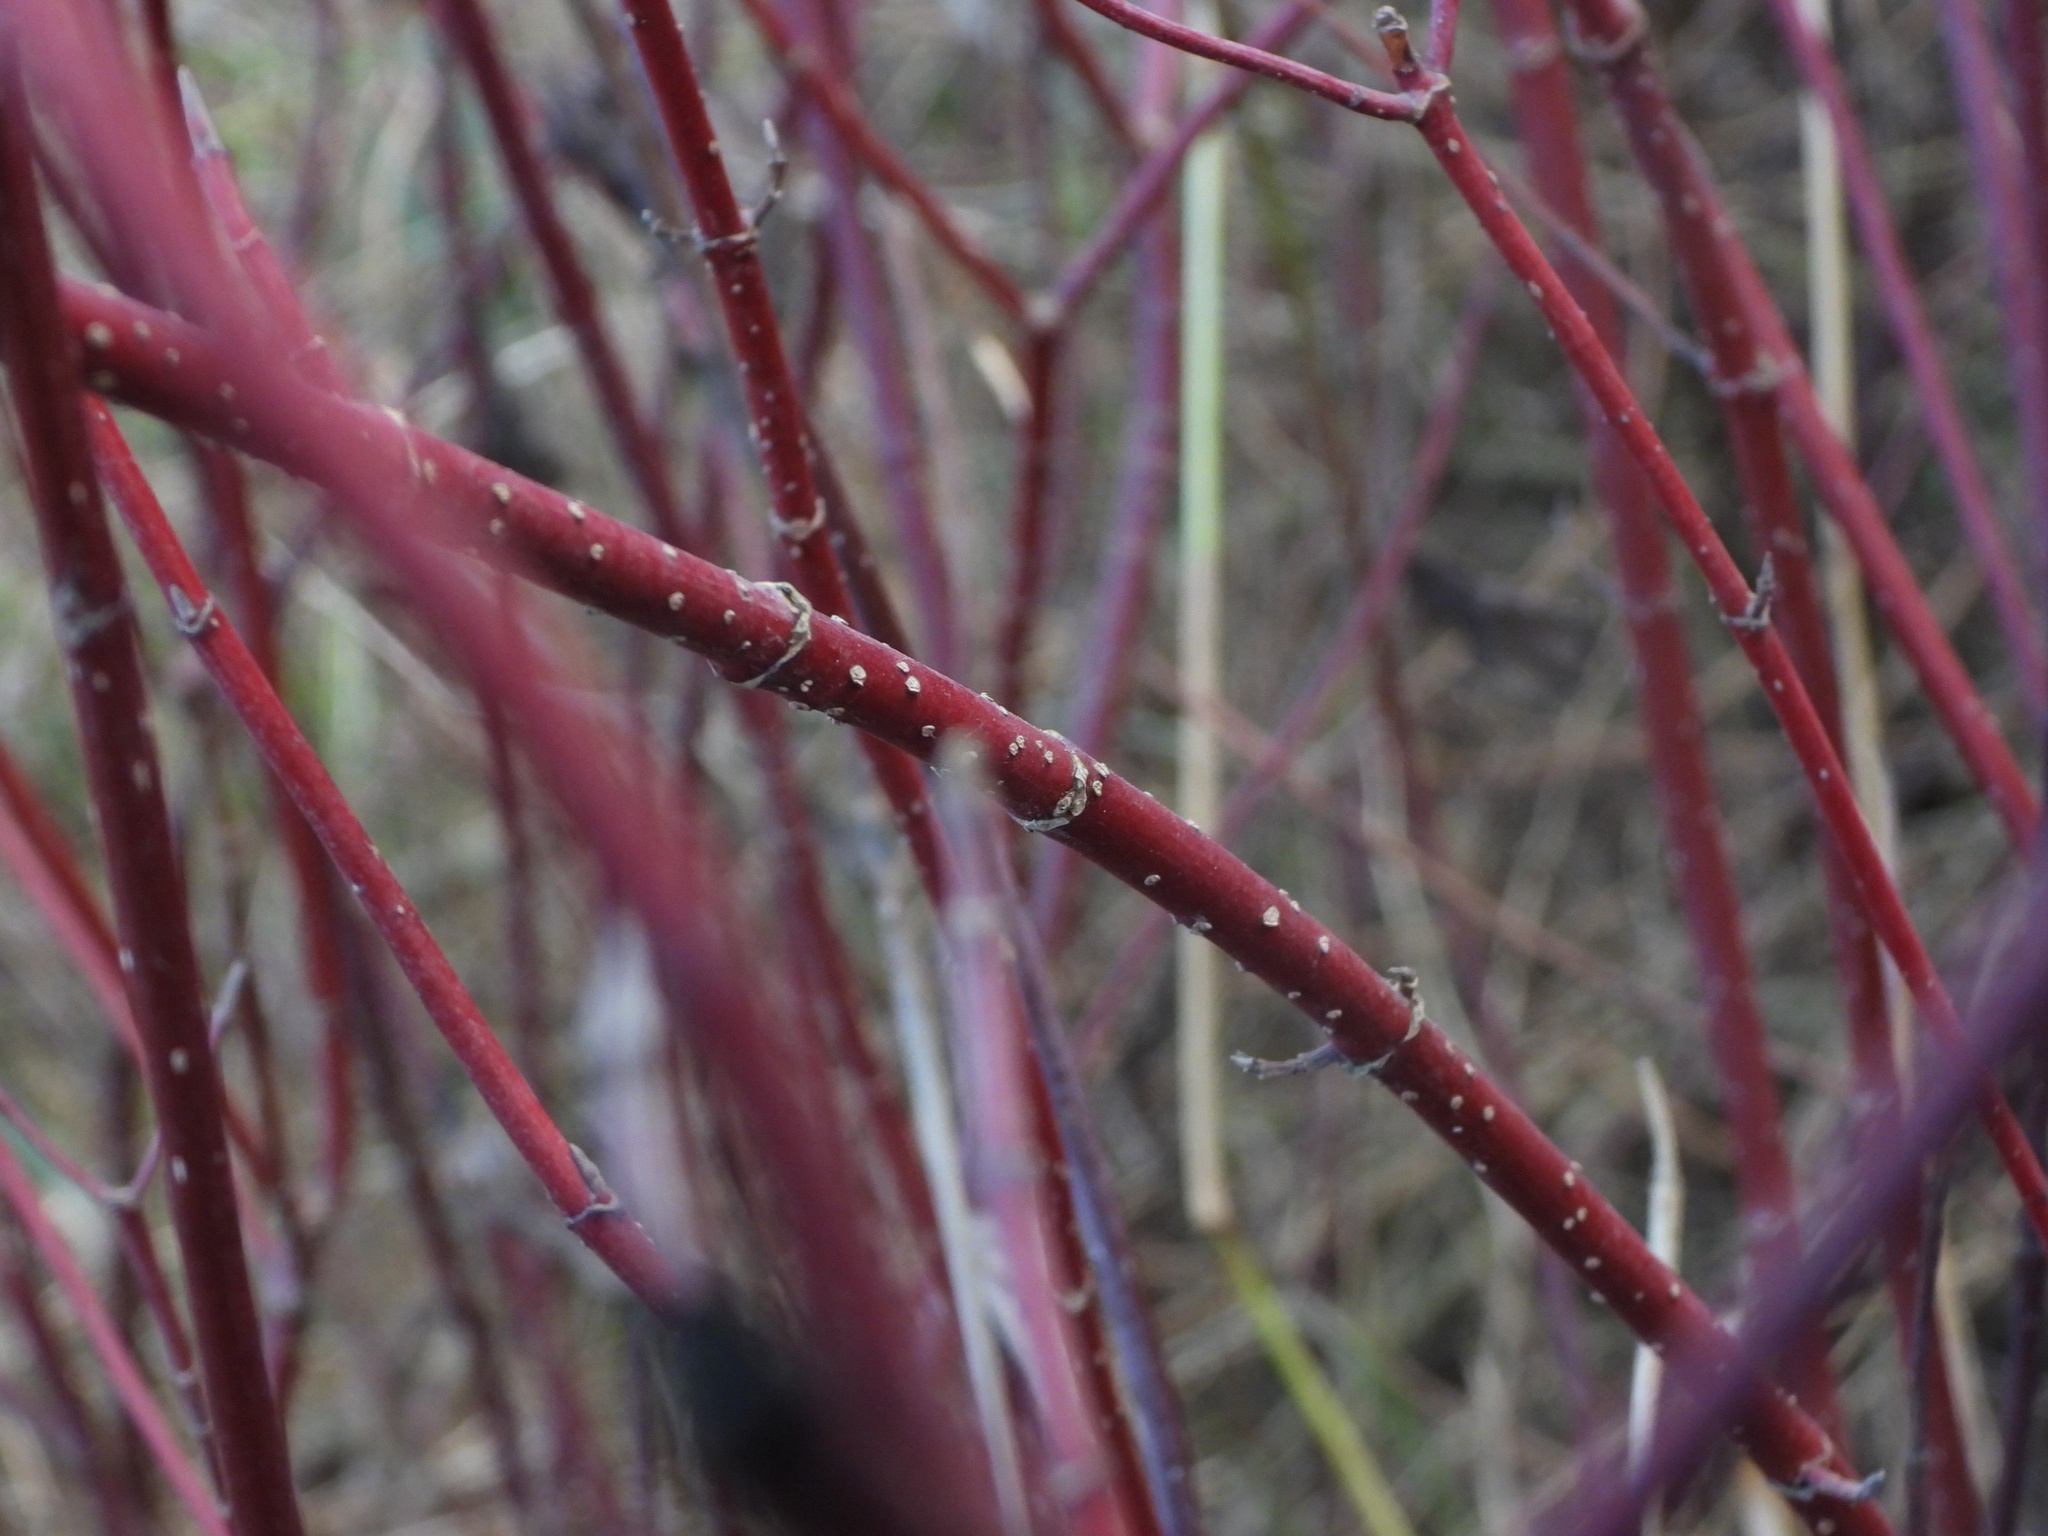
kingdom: Plantae
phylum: Tracheophyta
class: Magnoliopsida
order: Cornales
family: Cornaceae
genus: Cornus
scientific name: Cornus sericea
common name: Red-osier dogwood
